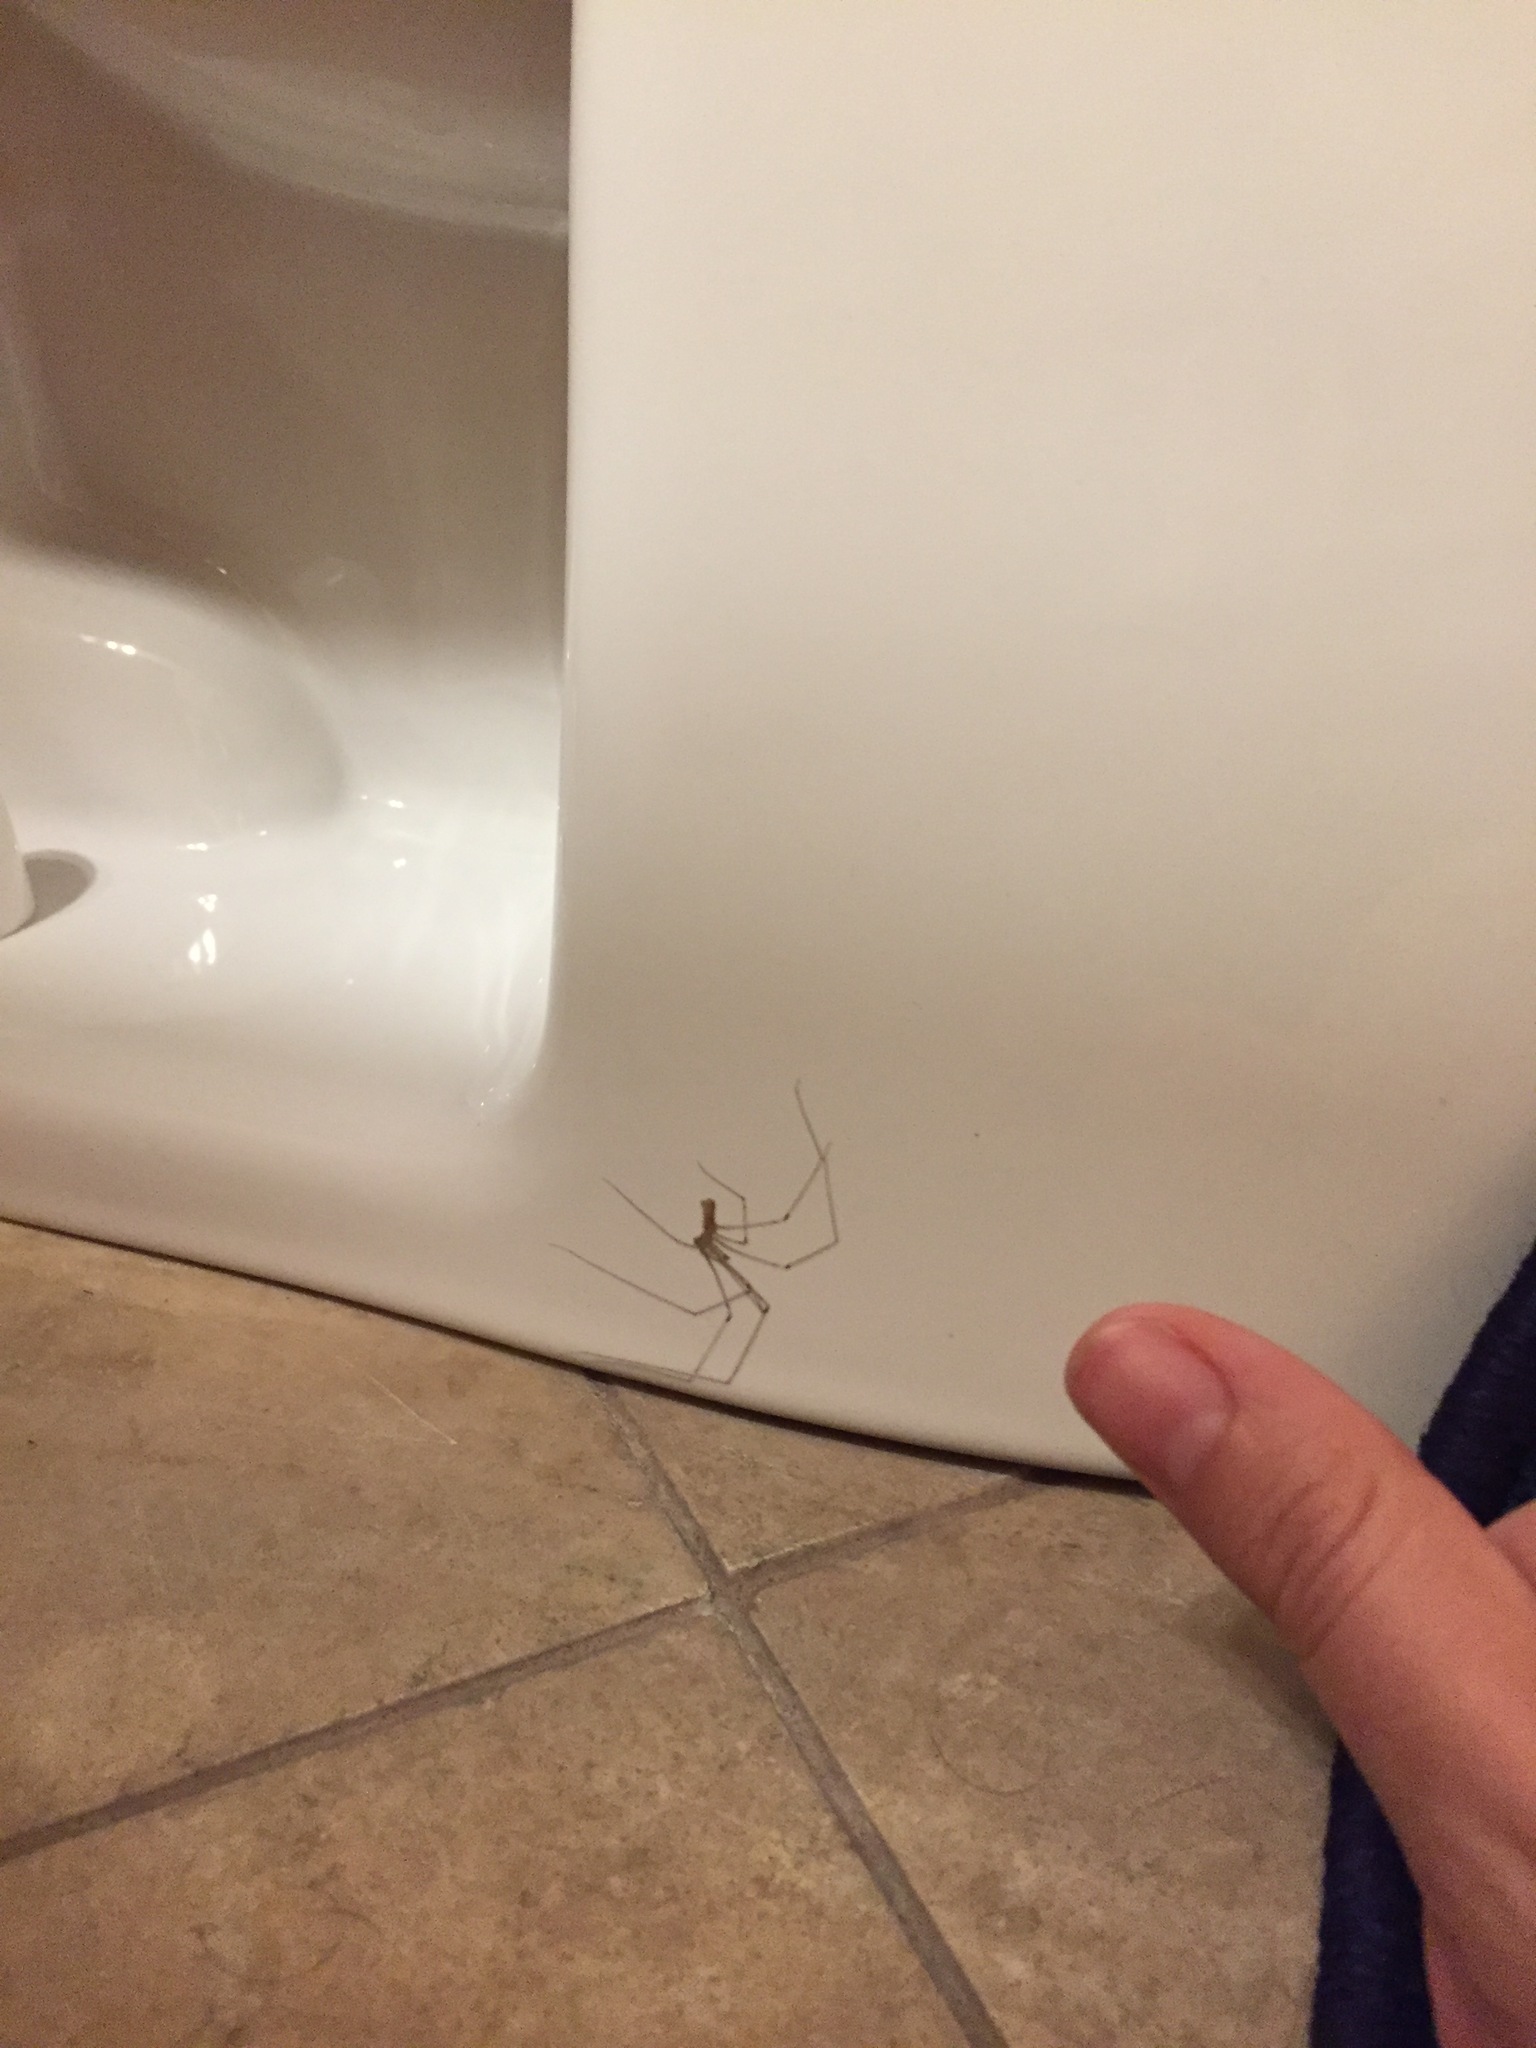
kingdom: Animalia
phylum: Arthropoda
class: Arachnida
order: Araneae
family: Pholcidae
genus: Pholcus
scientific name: Pholcus phalangioides
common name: Longbodied cellar spider
